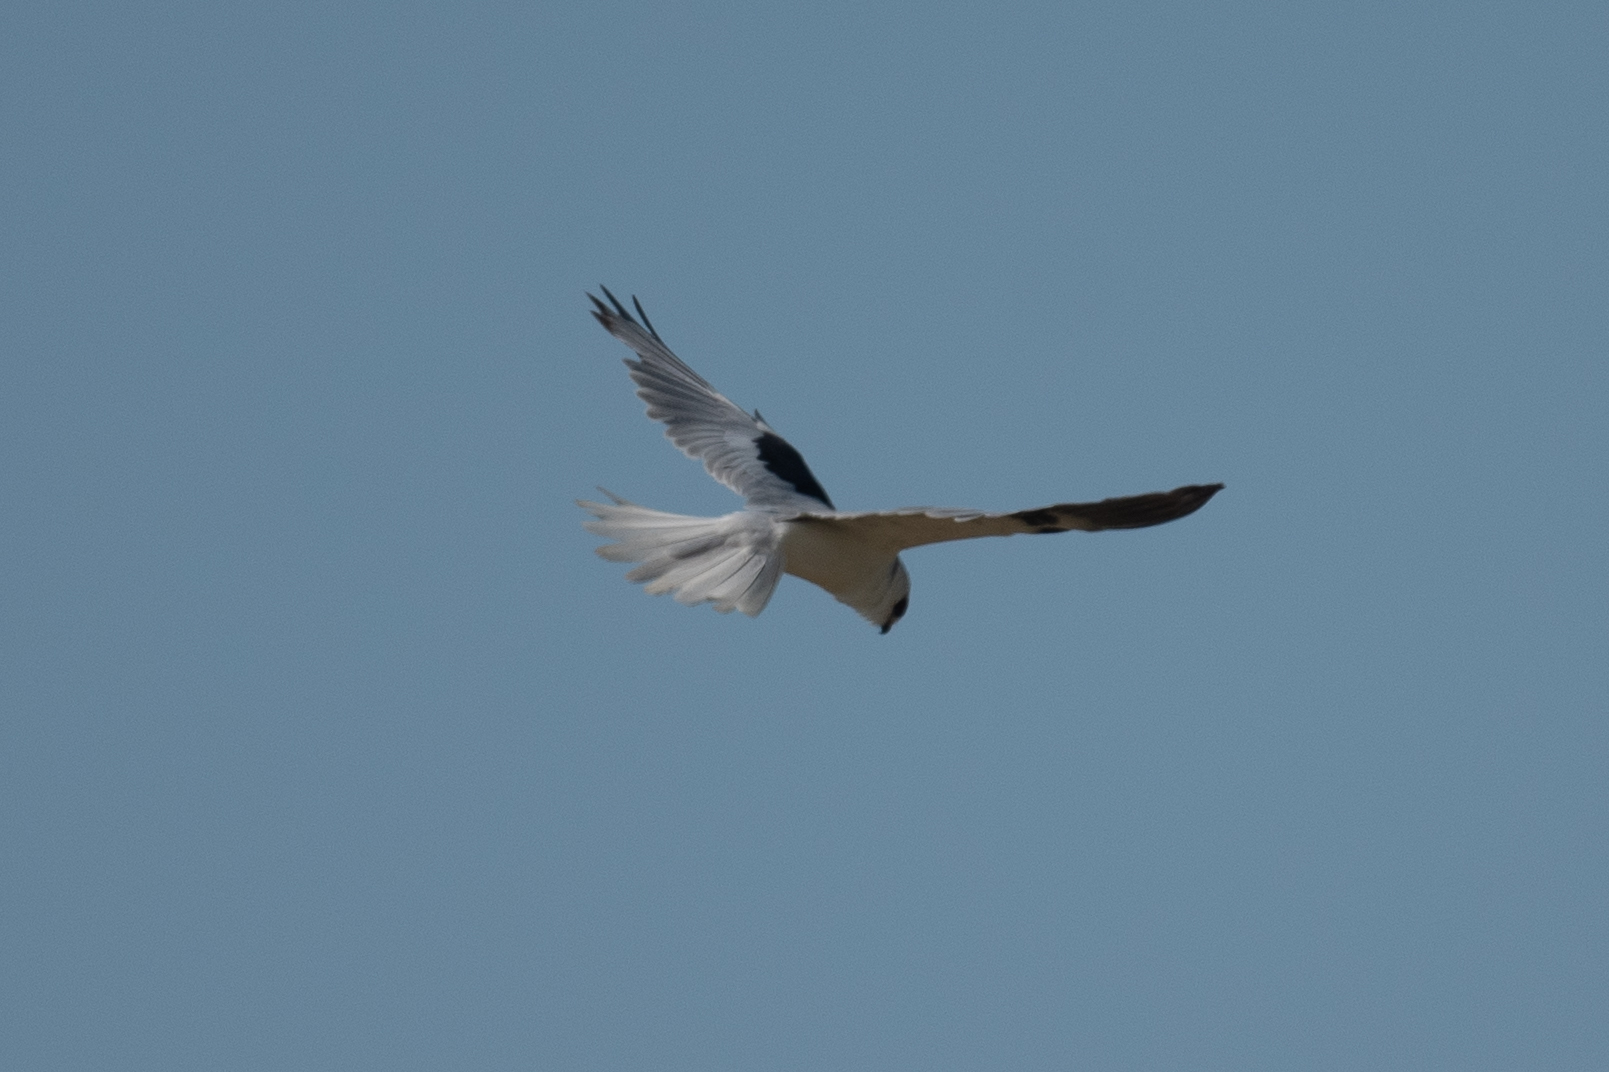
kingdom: Animalia
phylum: Chordata
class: Aves
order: Accipitriformes
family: Accipitridae
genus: Elanus
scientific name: Elanus leucurus
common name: White-tailed kite
